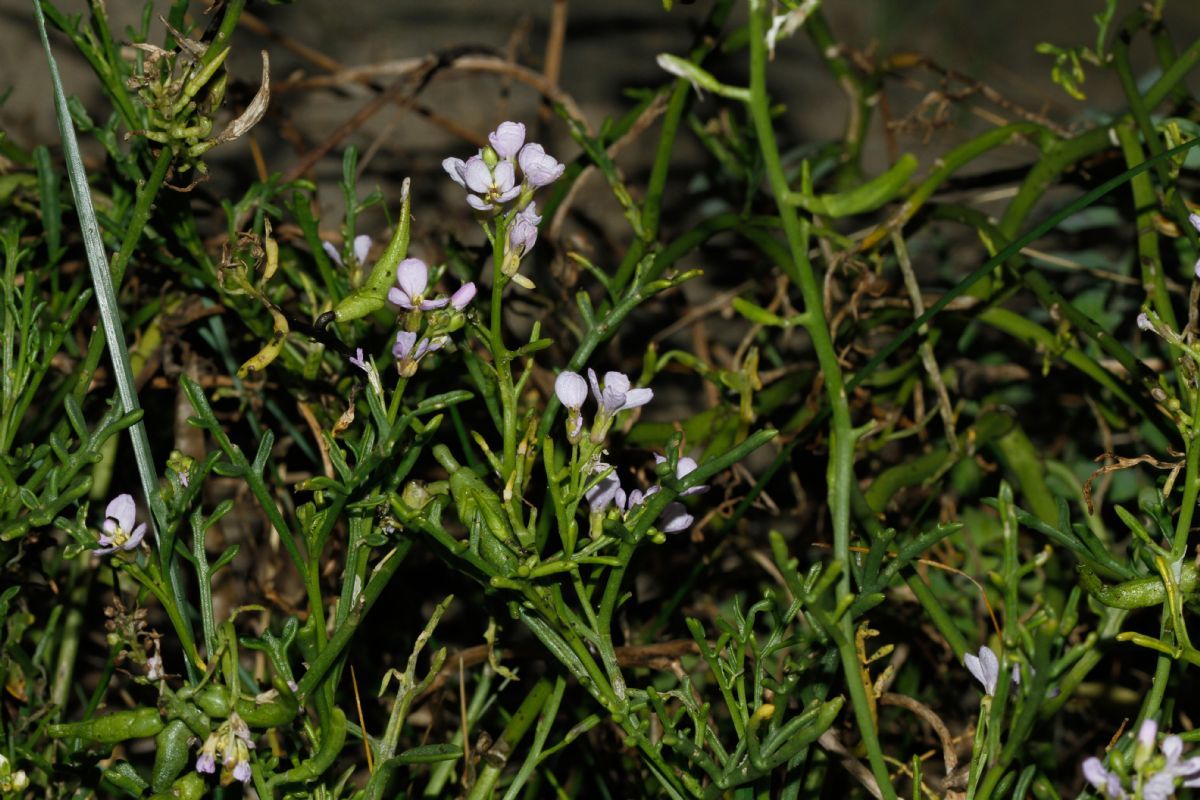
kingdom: Plantae
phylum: Tracheophyta
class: Magnoliopsida
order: Brassicales
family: Brassicaceae
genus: Cakile
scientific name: Cakile maritima
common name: Sea rocket
